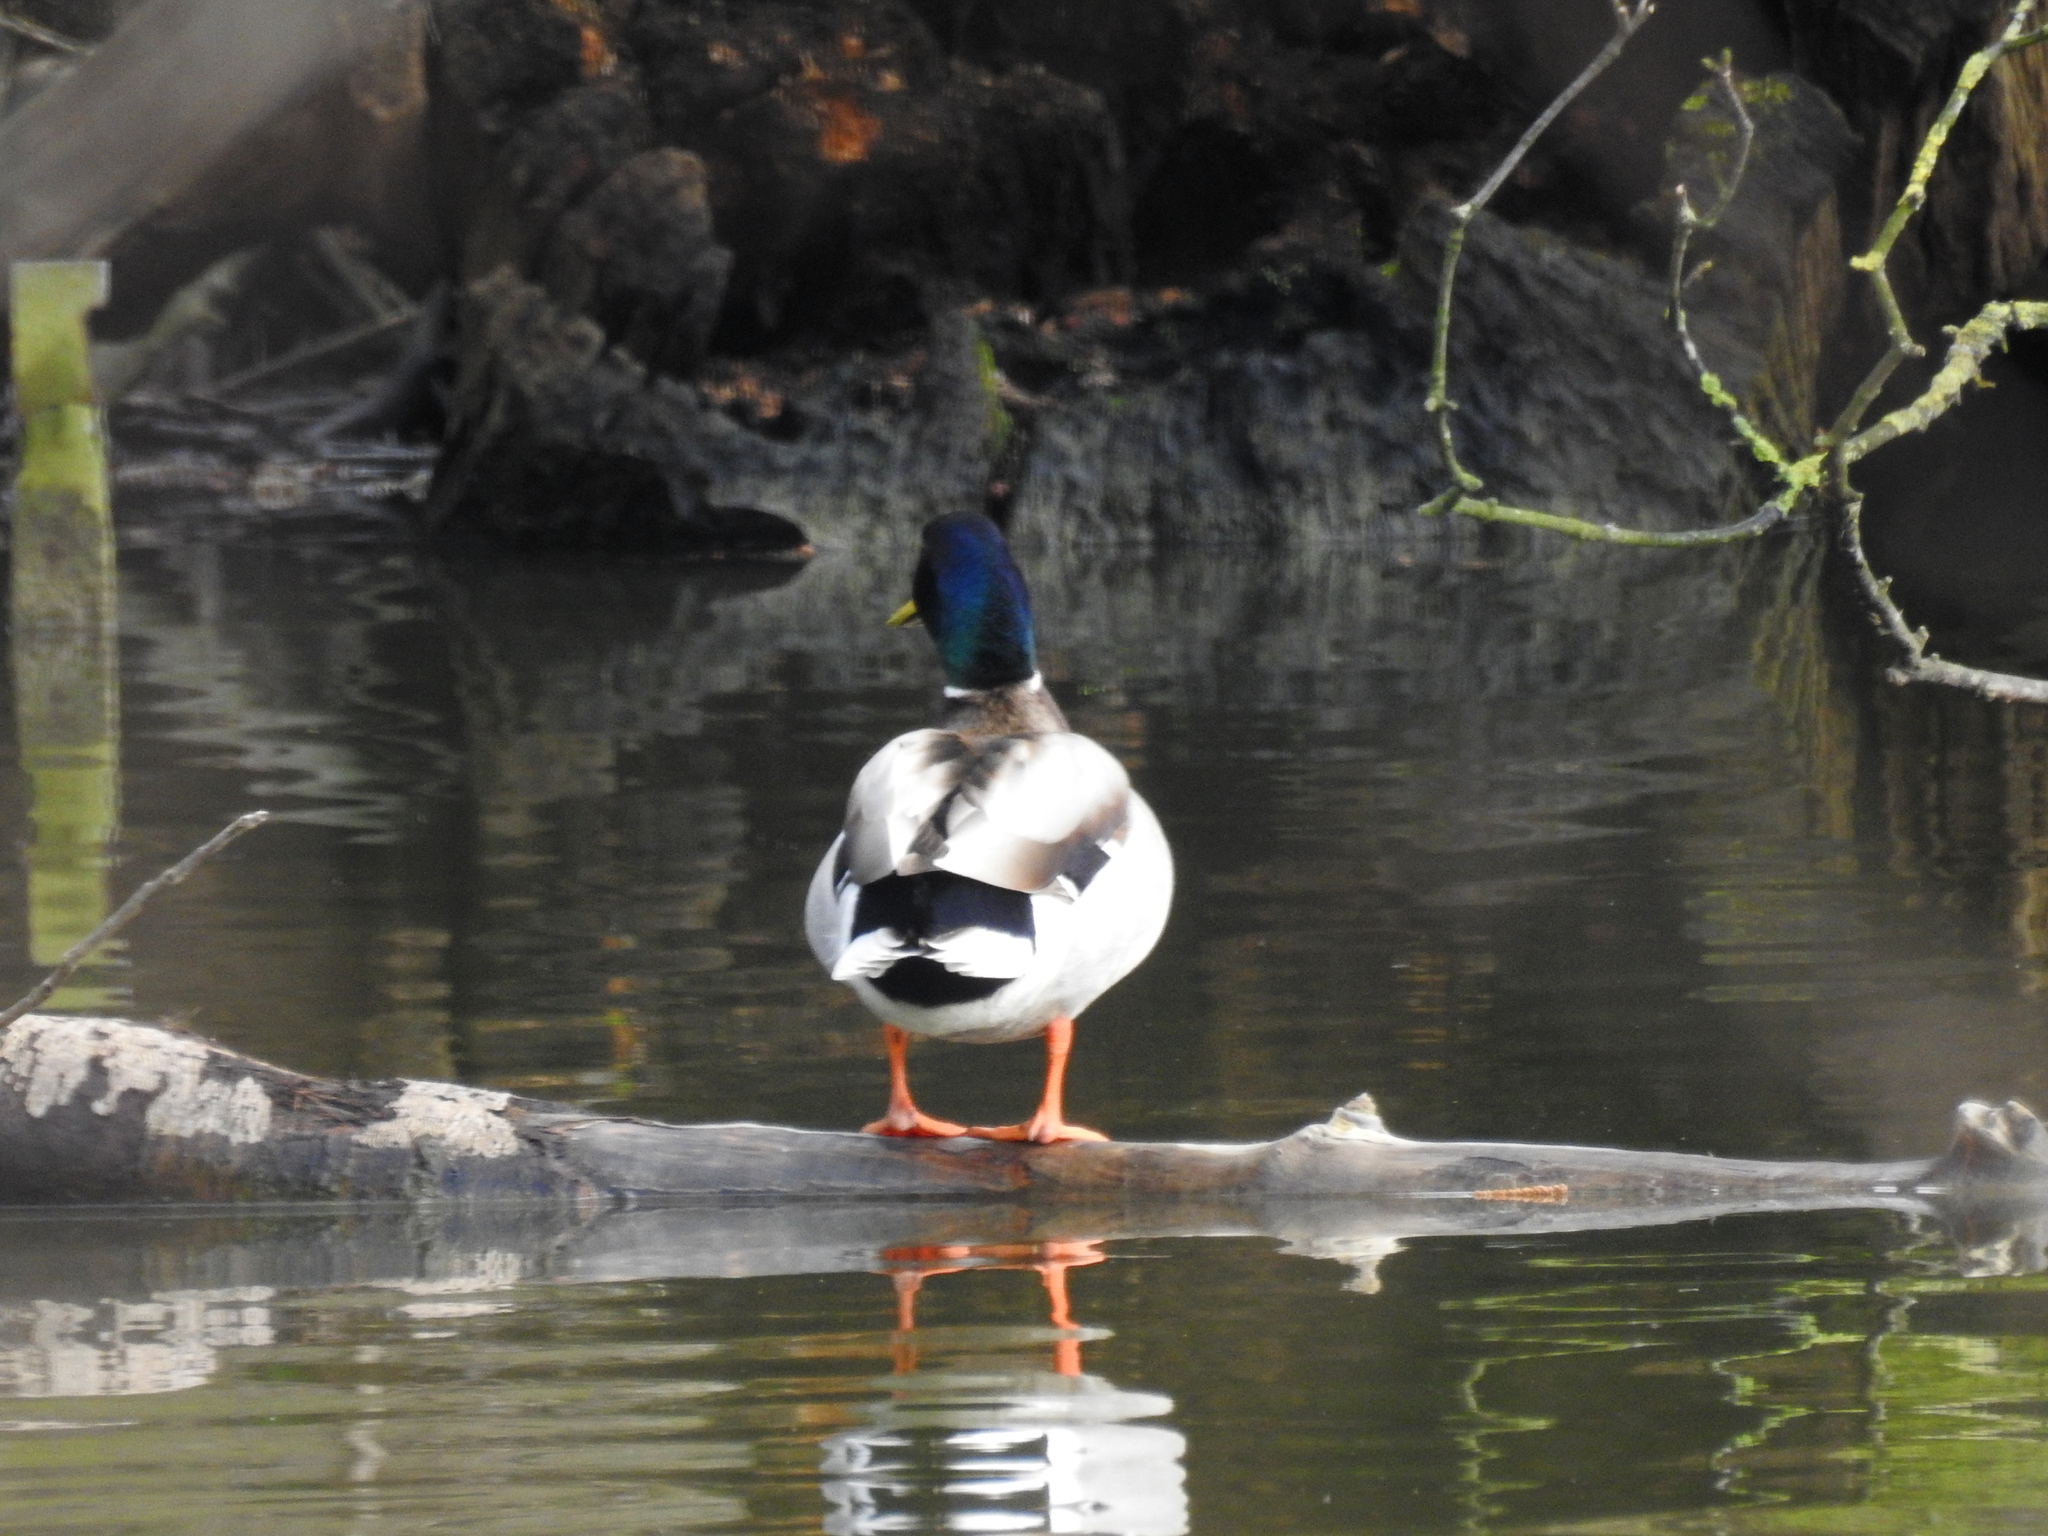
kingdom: Animalia
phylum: Chordata
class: Aves
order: Anseriformes
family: Anatidae
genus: Anas
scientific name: Anas platyrhynchos
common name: Mallard
